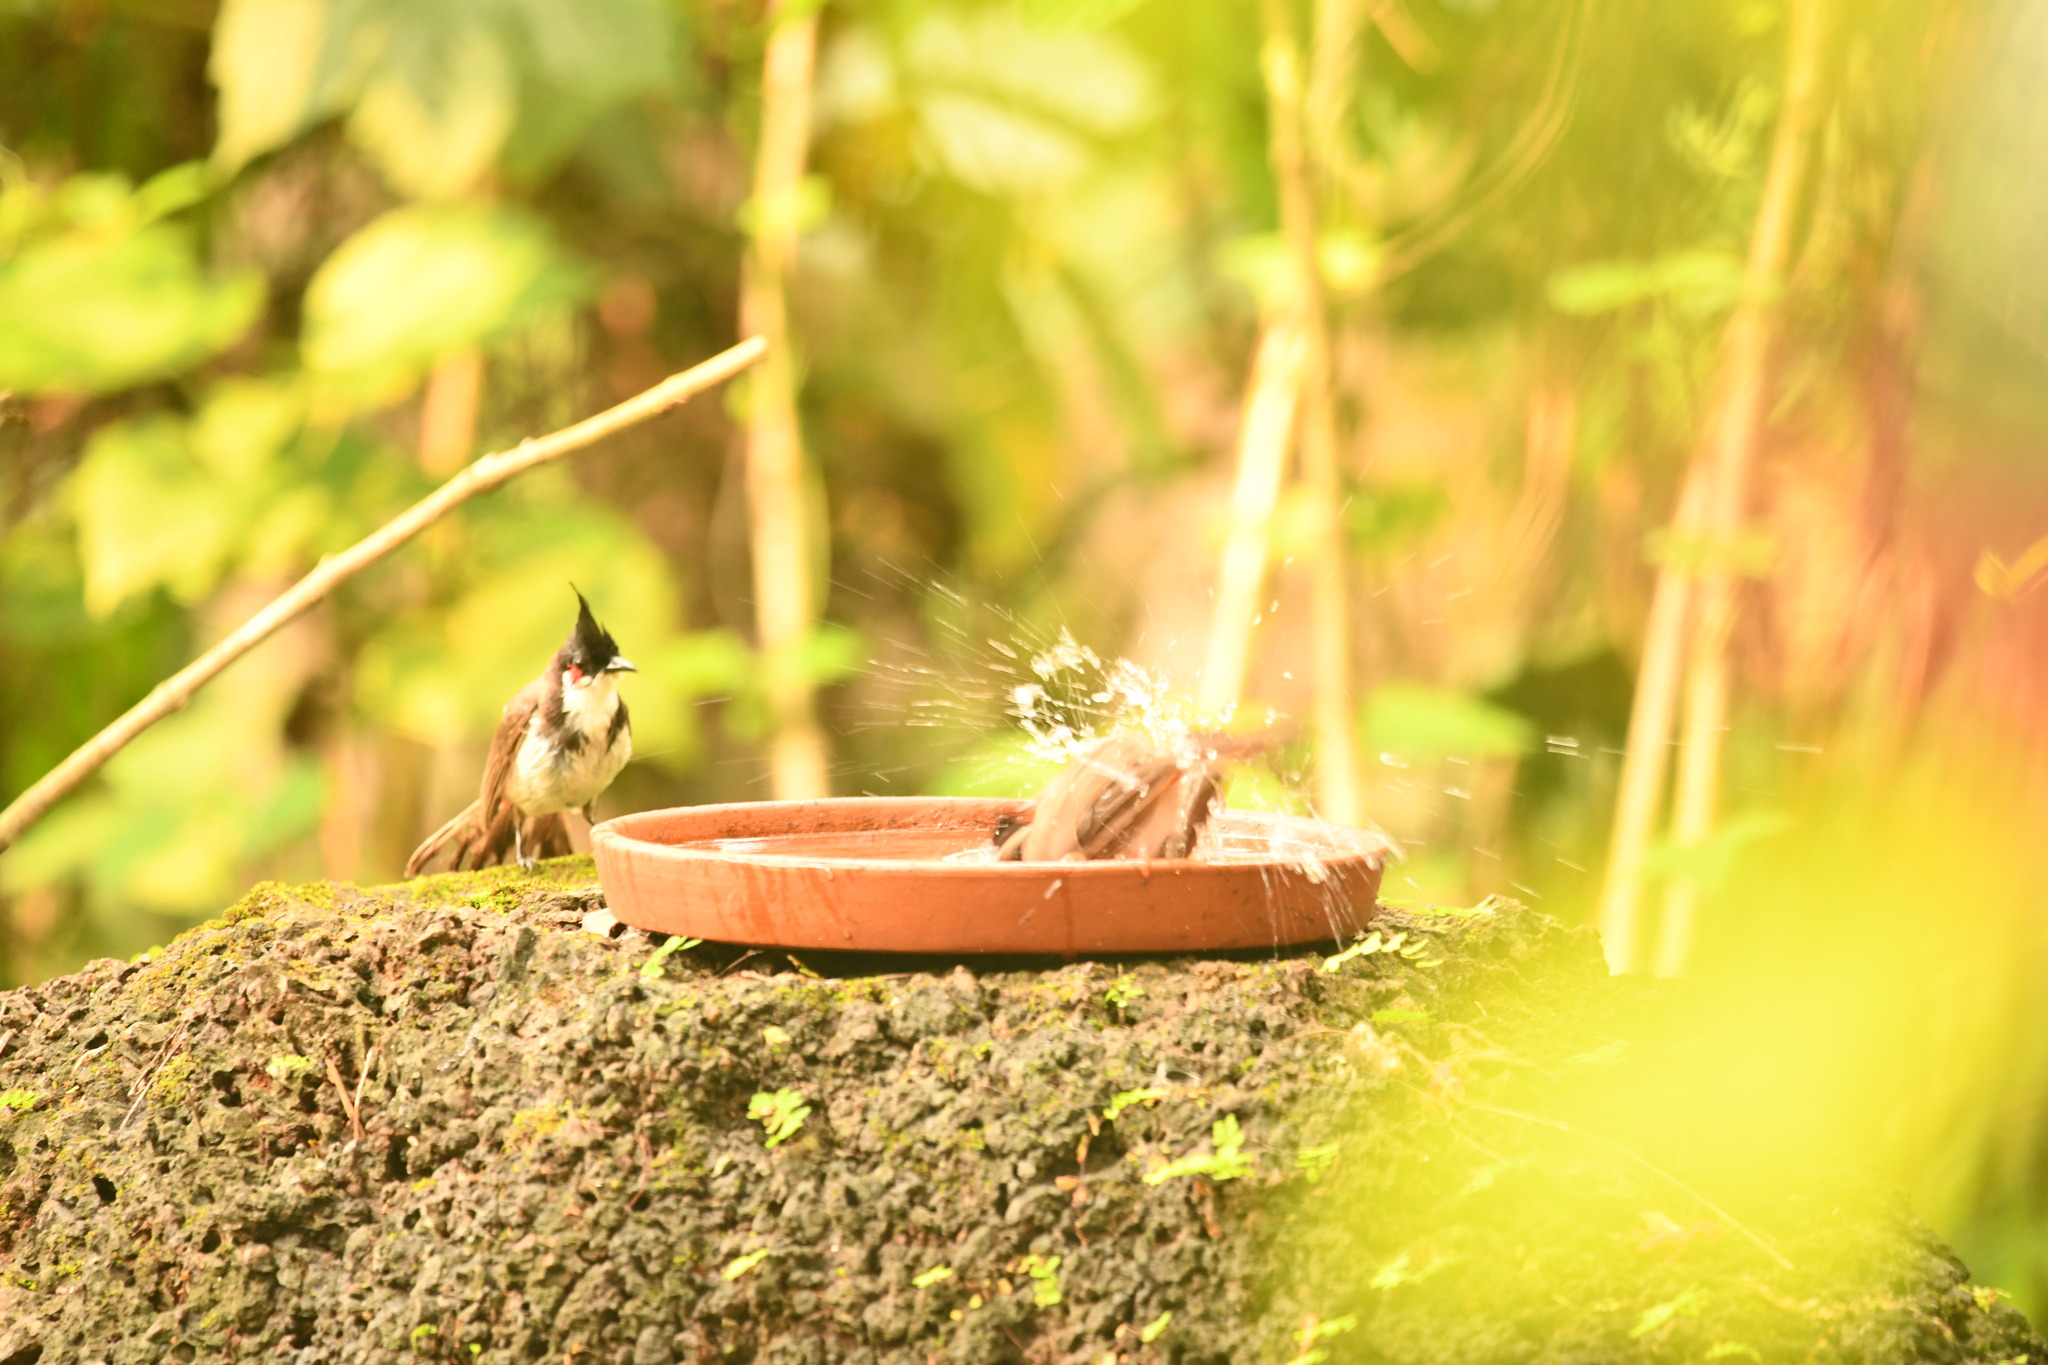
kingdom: Animalia
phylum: Chordata
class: Aves
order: Passeriformes
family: Pycnonotidae
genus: Pycnonotus
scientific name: Pycnonotus jocosus
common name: Red-whiskered bulbul
